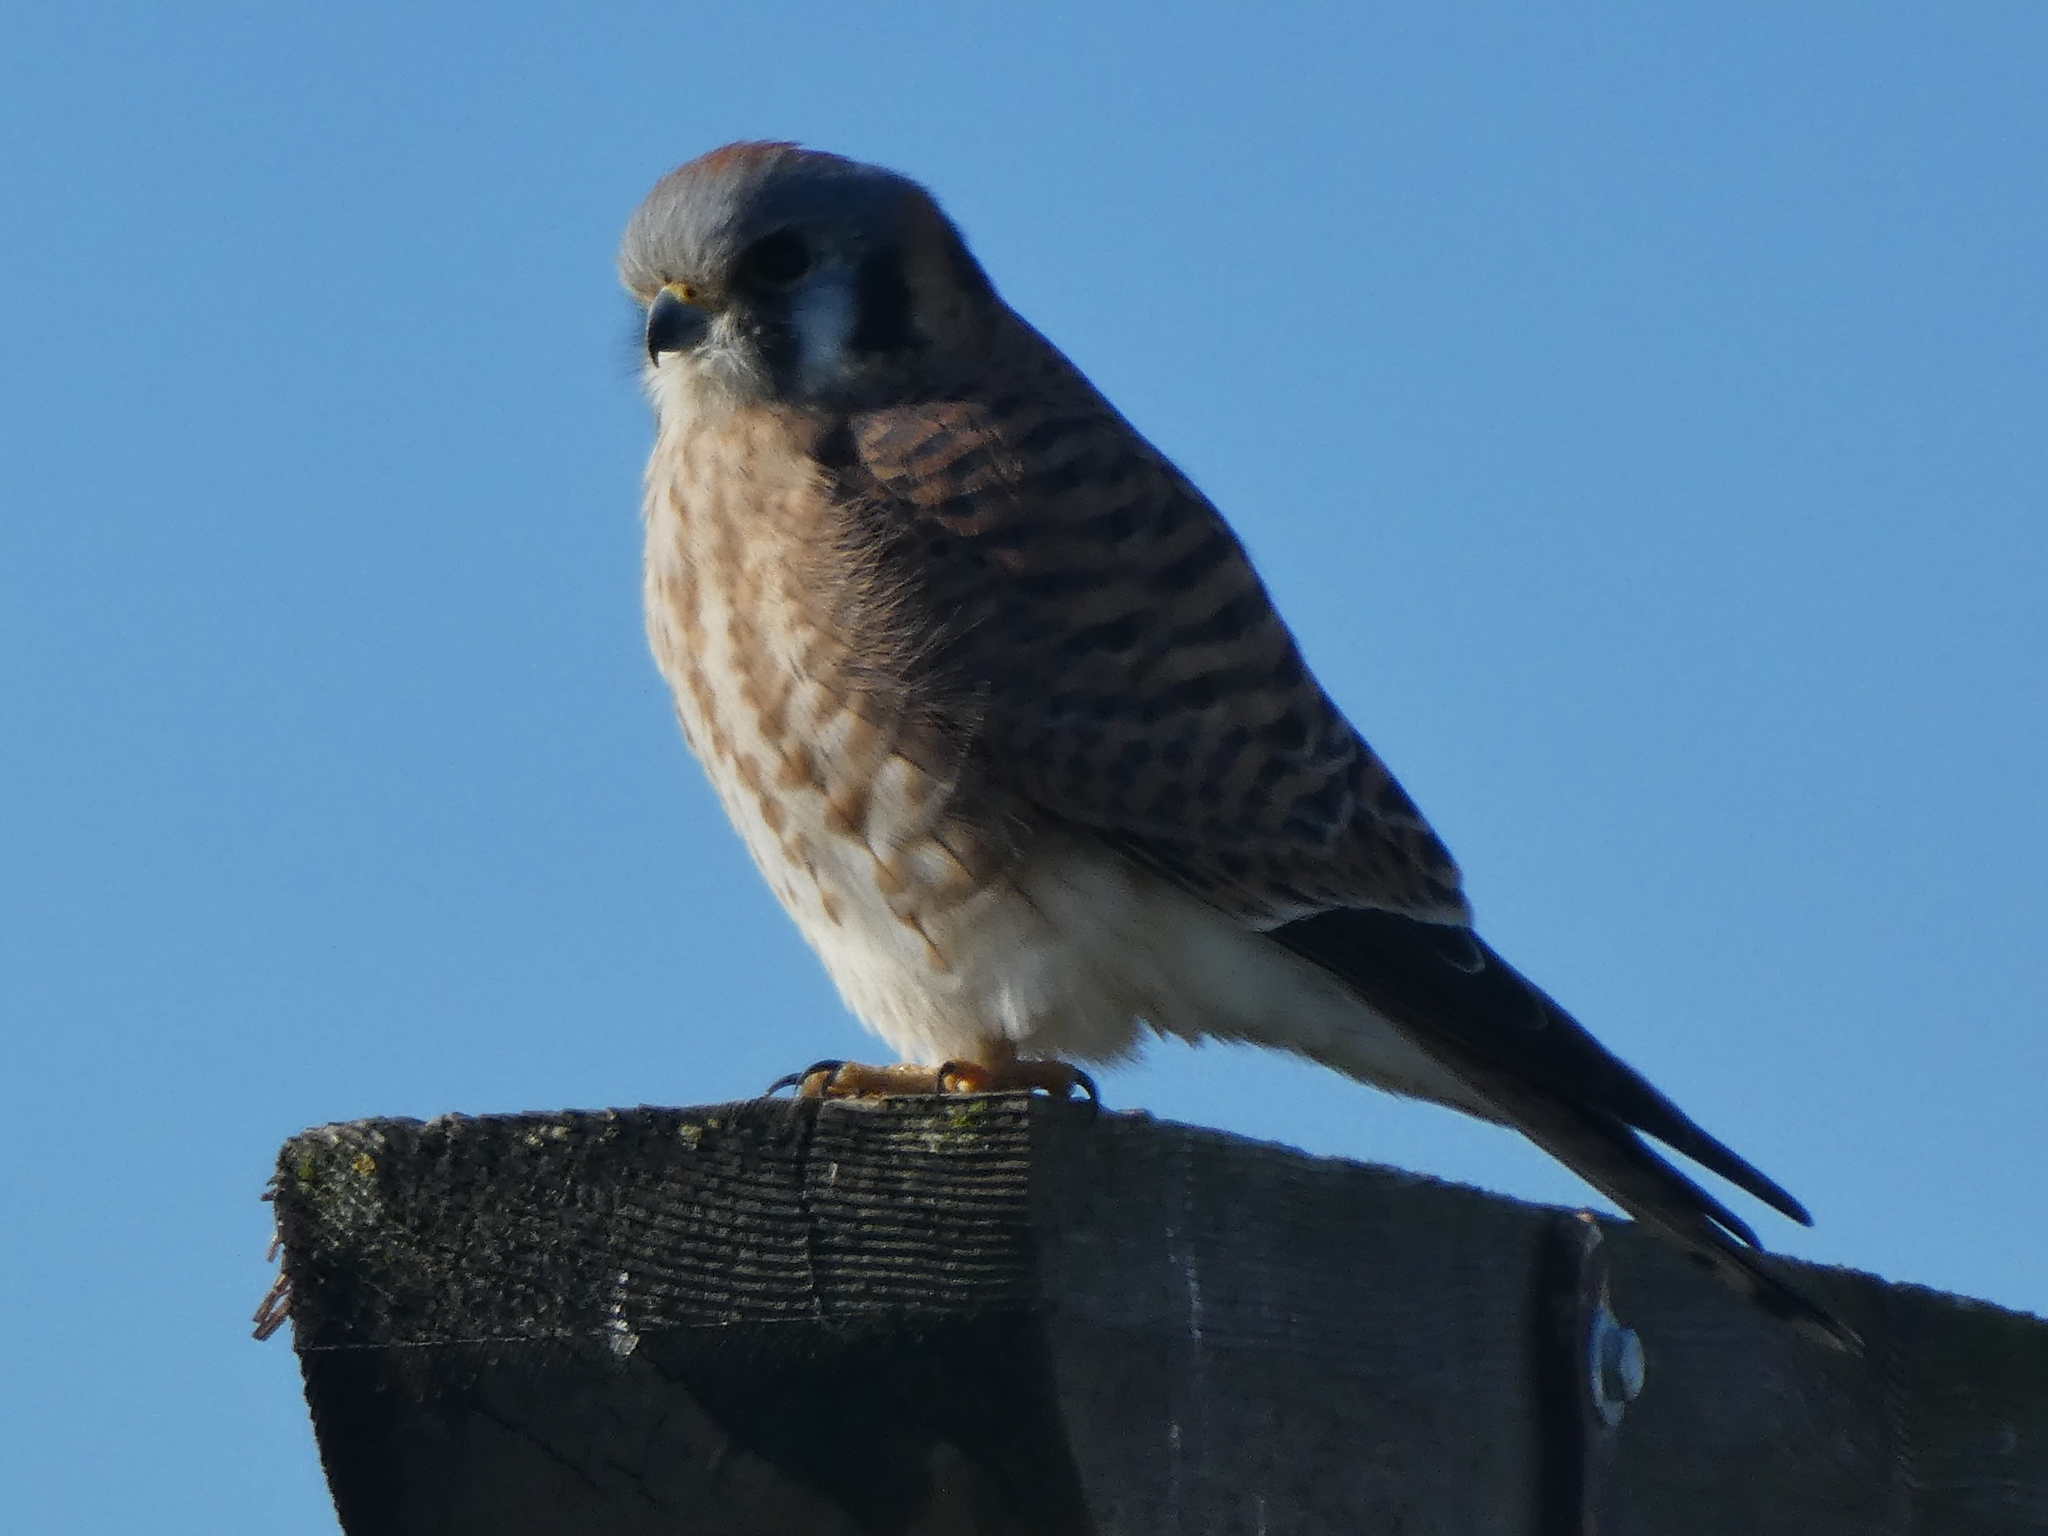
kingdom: Animalia
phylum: Chordata
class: Aves
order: Falconiformes
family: Falconidae
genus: Falco
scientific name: Falco sparverius
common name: American kestrel
